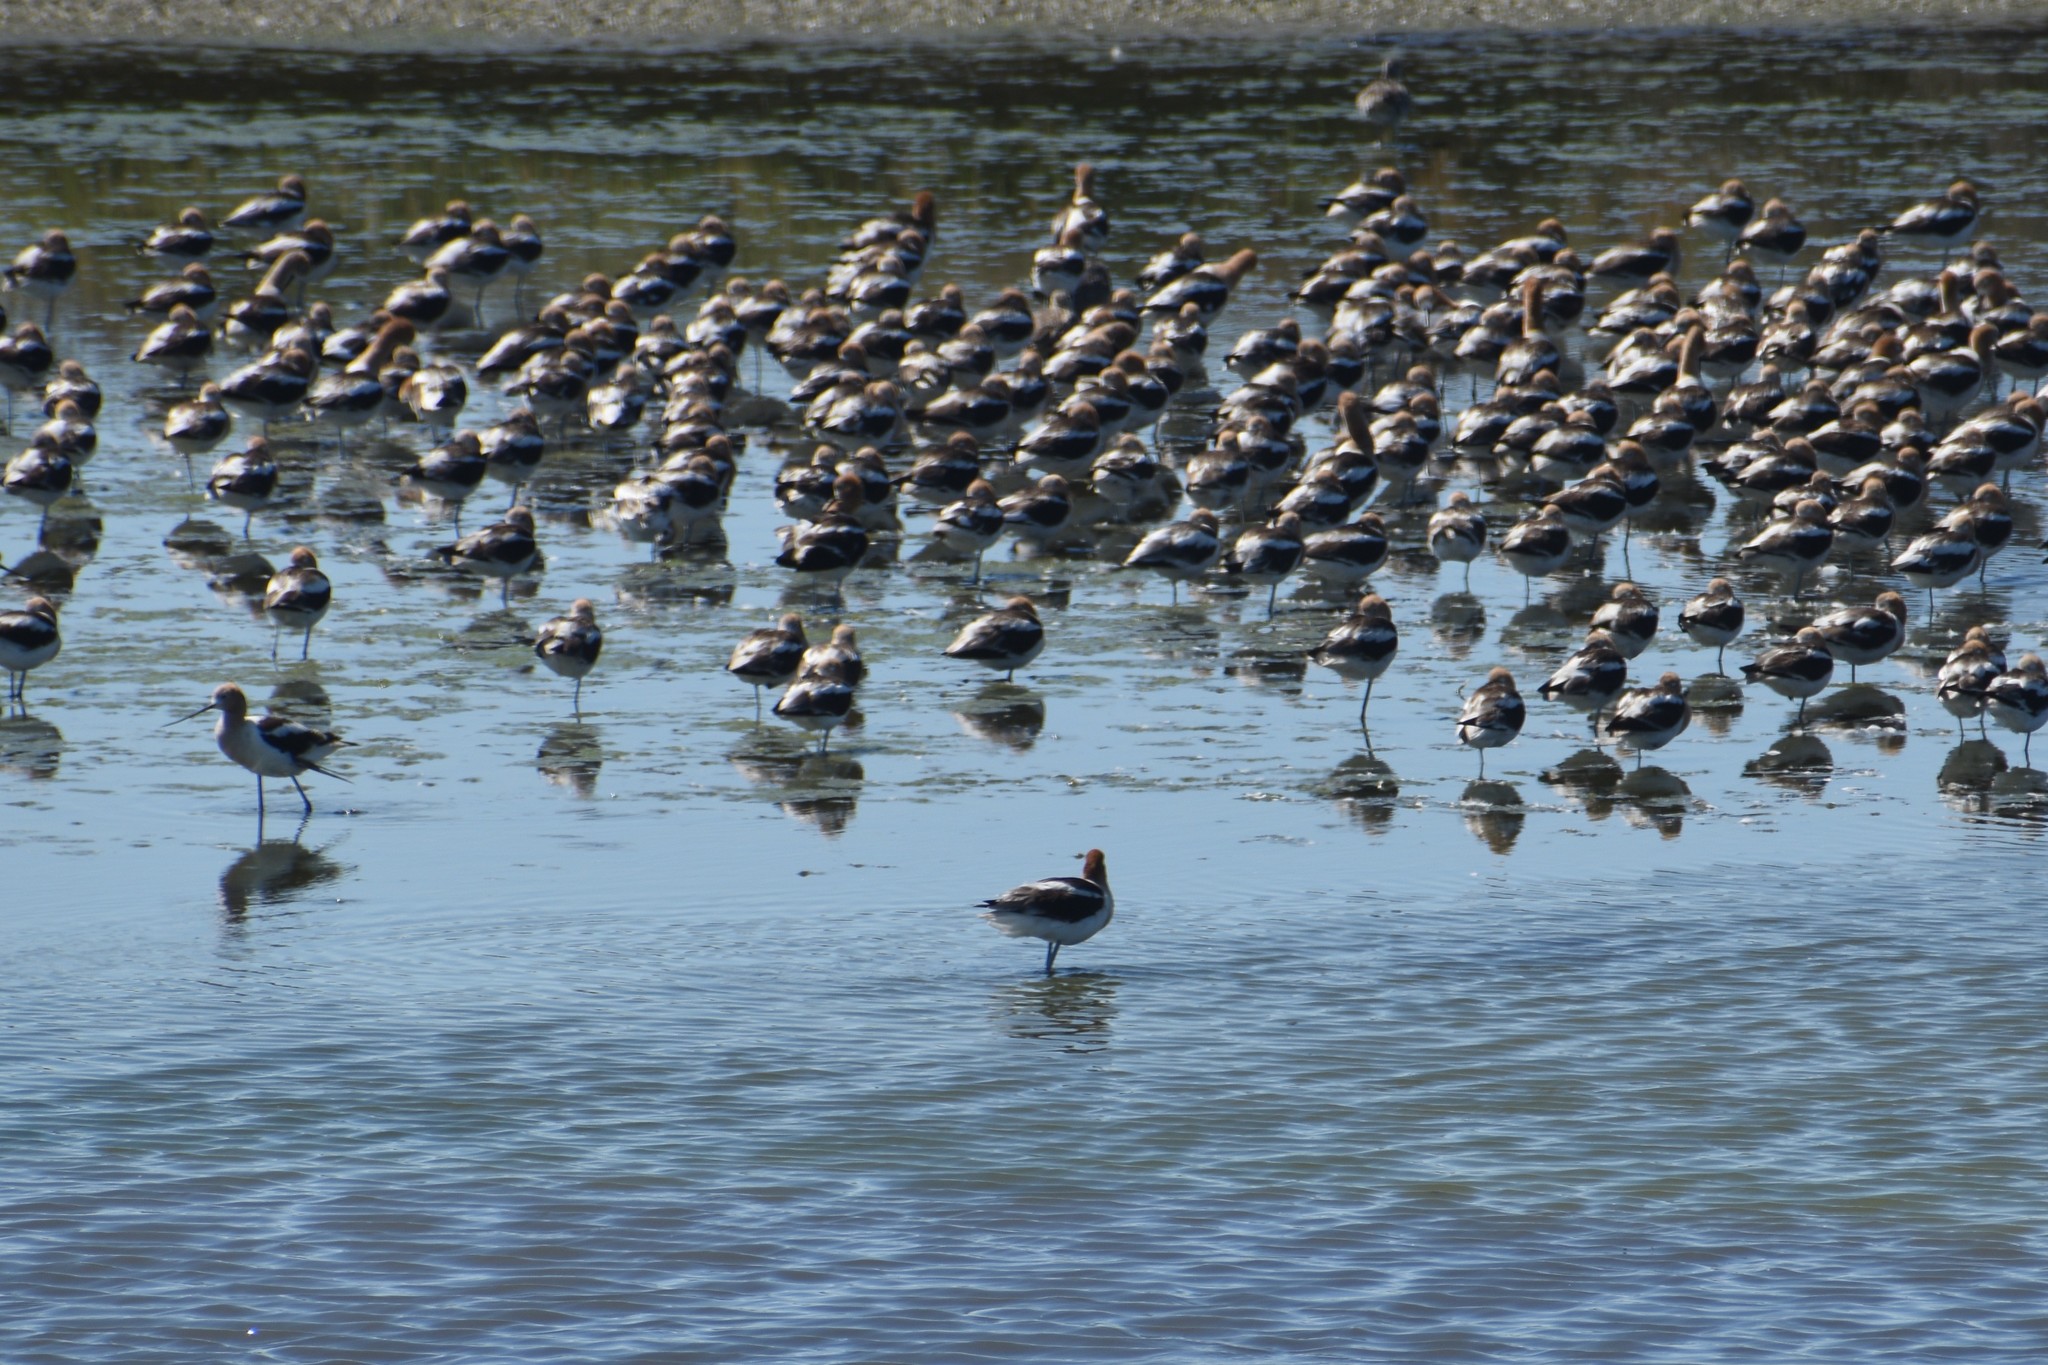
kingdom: Animalia
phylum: Chordata
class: Aves
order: Charadriiformes
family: Recurvirostridae
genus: Recurvirostra
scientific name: Recurvirostra americana
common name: American avocet
